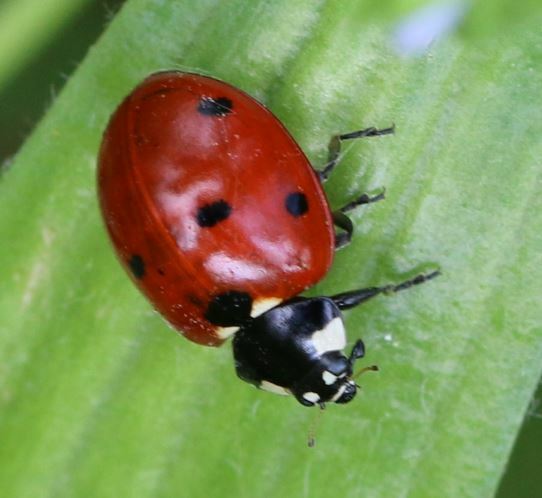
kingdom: Animalia
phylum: Arthropoda
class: Insecta
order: Coleoptera
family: Coccinellidae
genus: Coccinella
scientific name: Coccinella septempunctata
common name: Sevenspotted lady beetle
